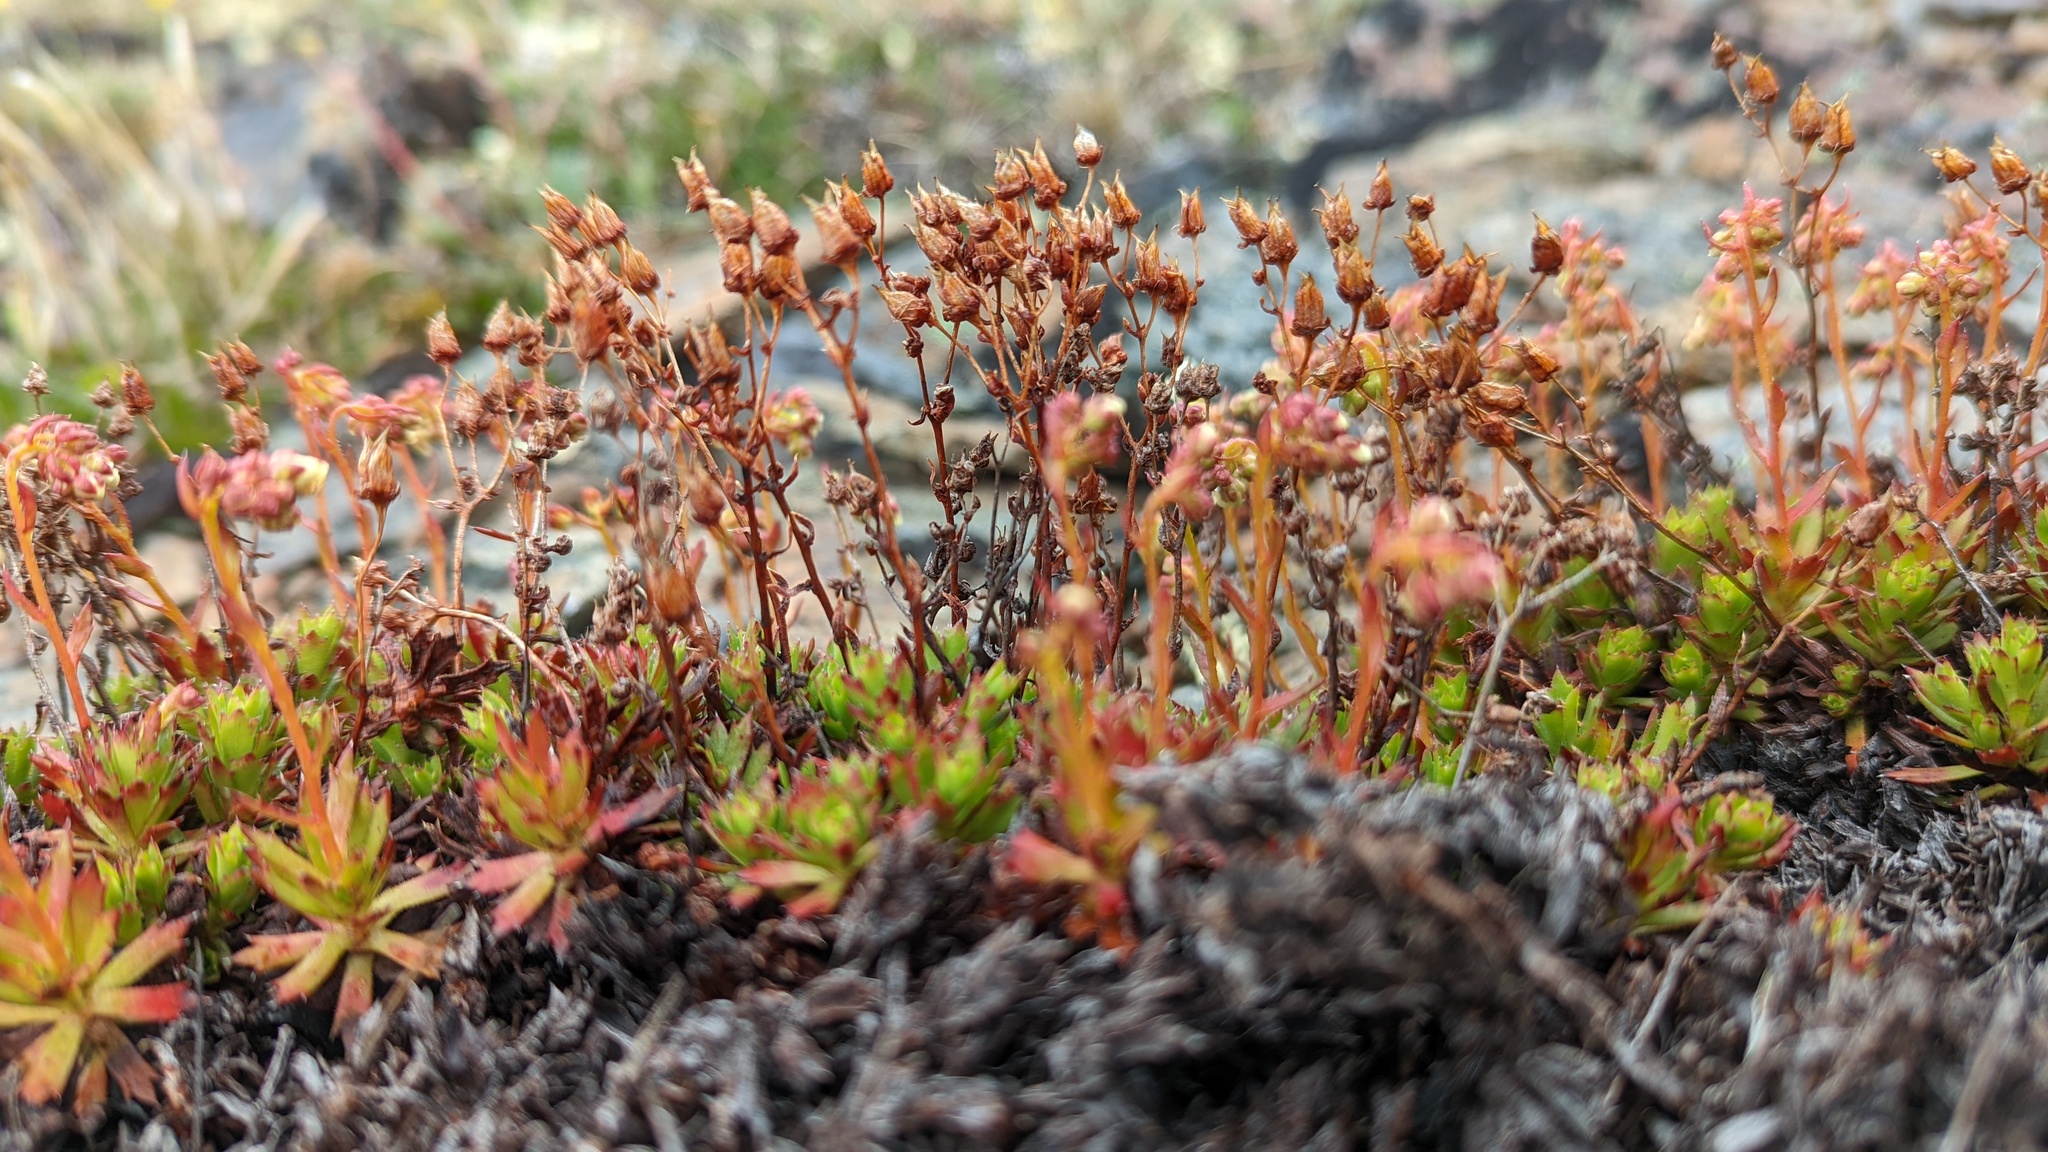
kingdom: Plantae
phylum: Tracheophyta
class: Magnoliopsida
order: Saxifragales
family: Saxifragaceae
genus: Saxifraga
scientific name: Saxifraga tricuspidata
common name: Prickly saxifrage
